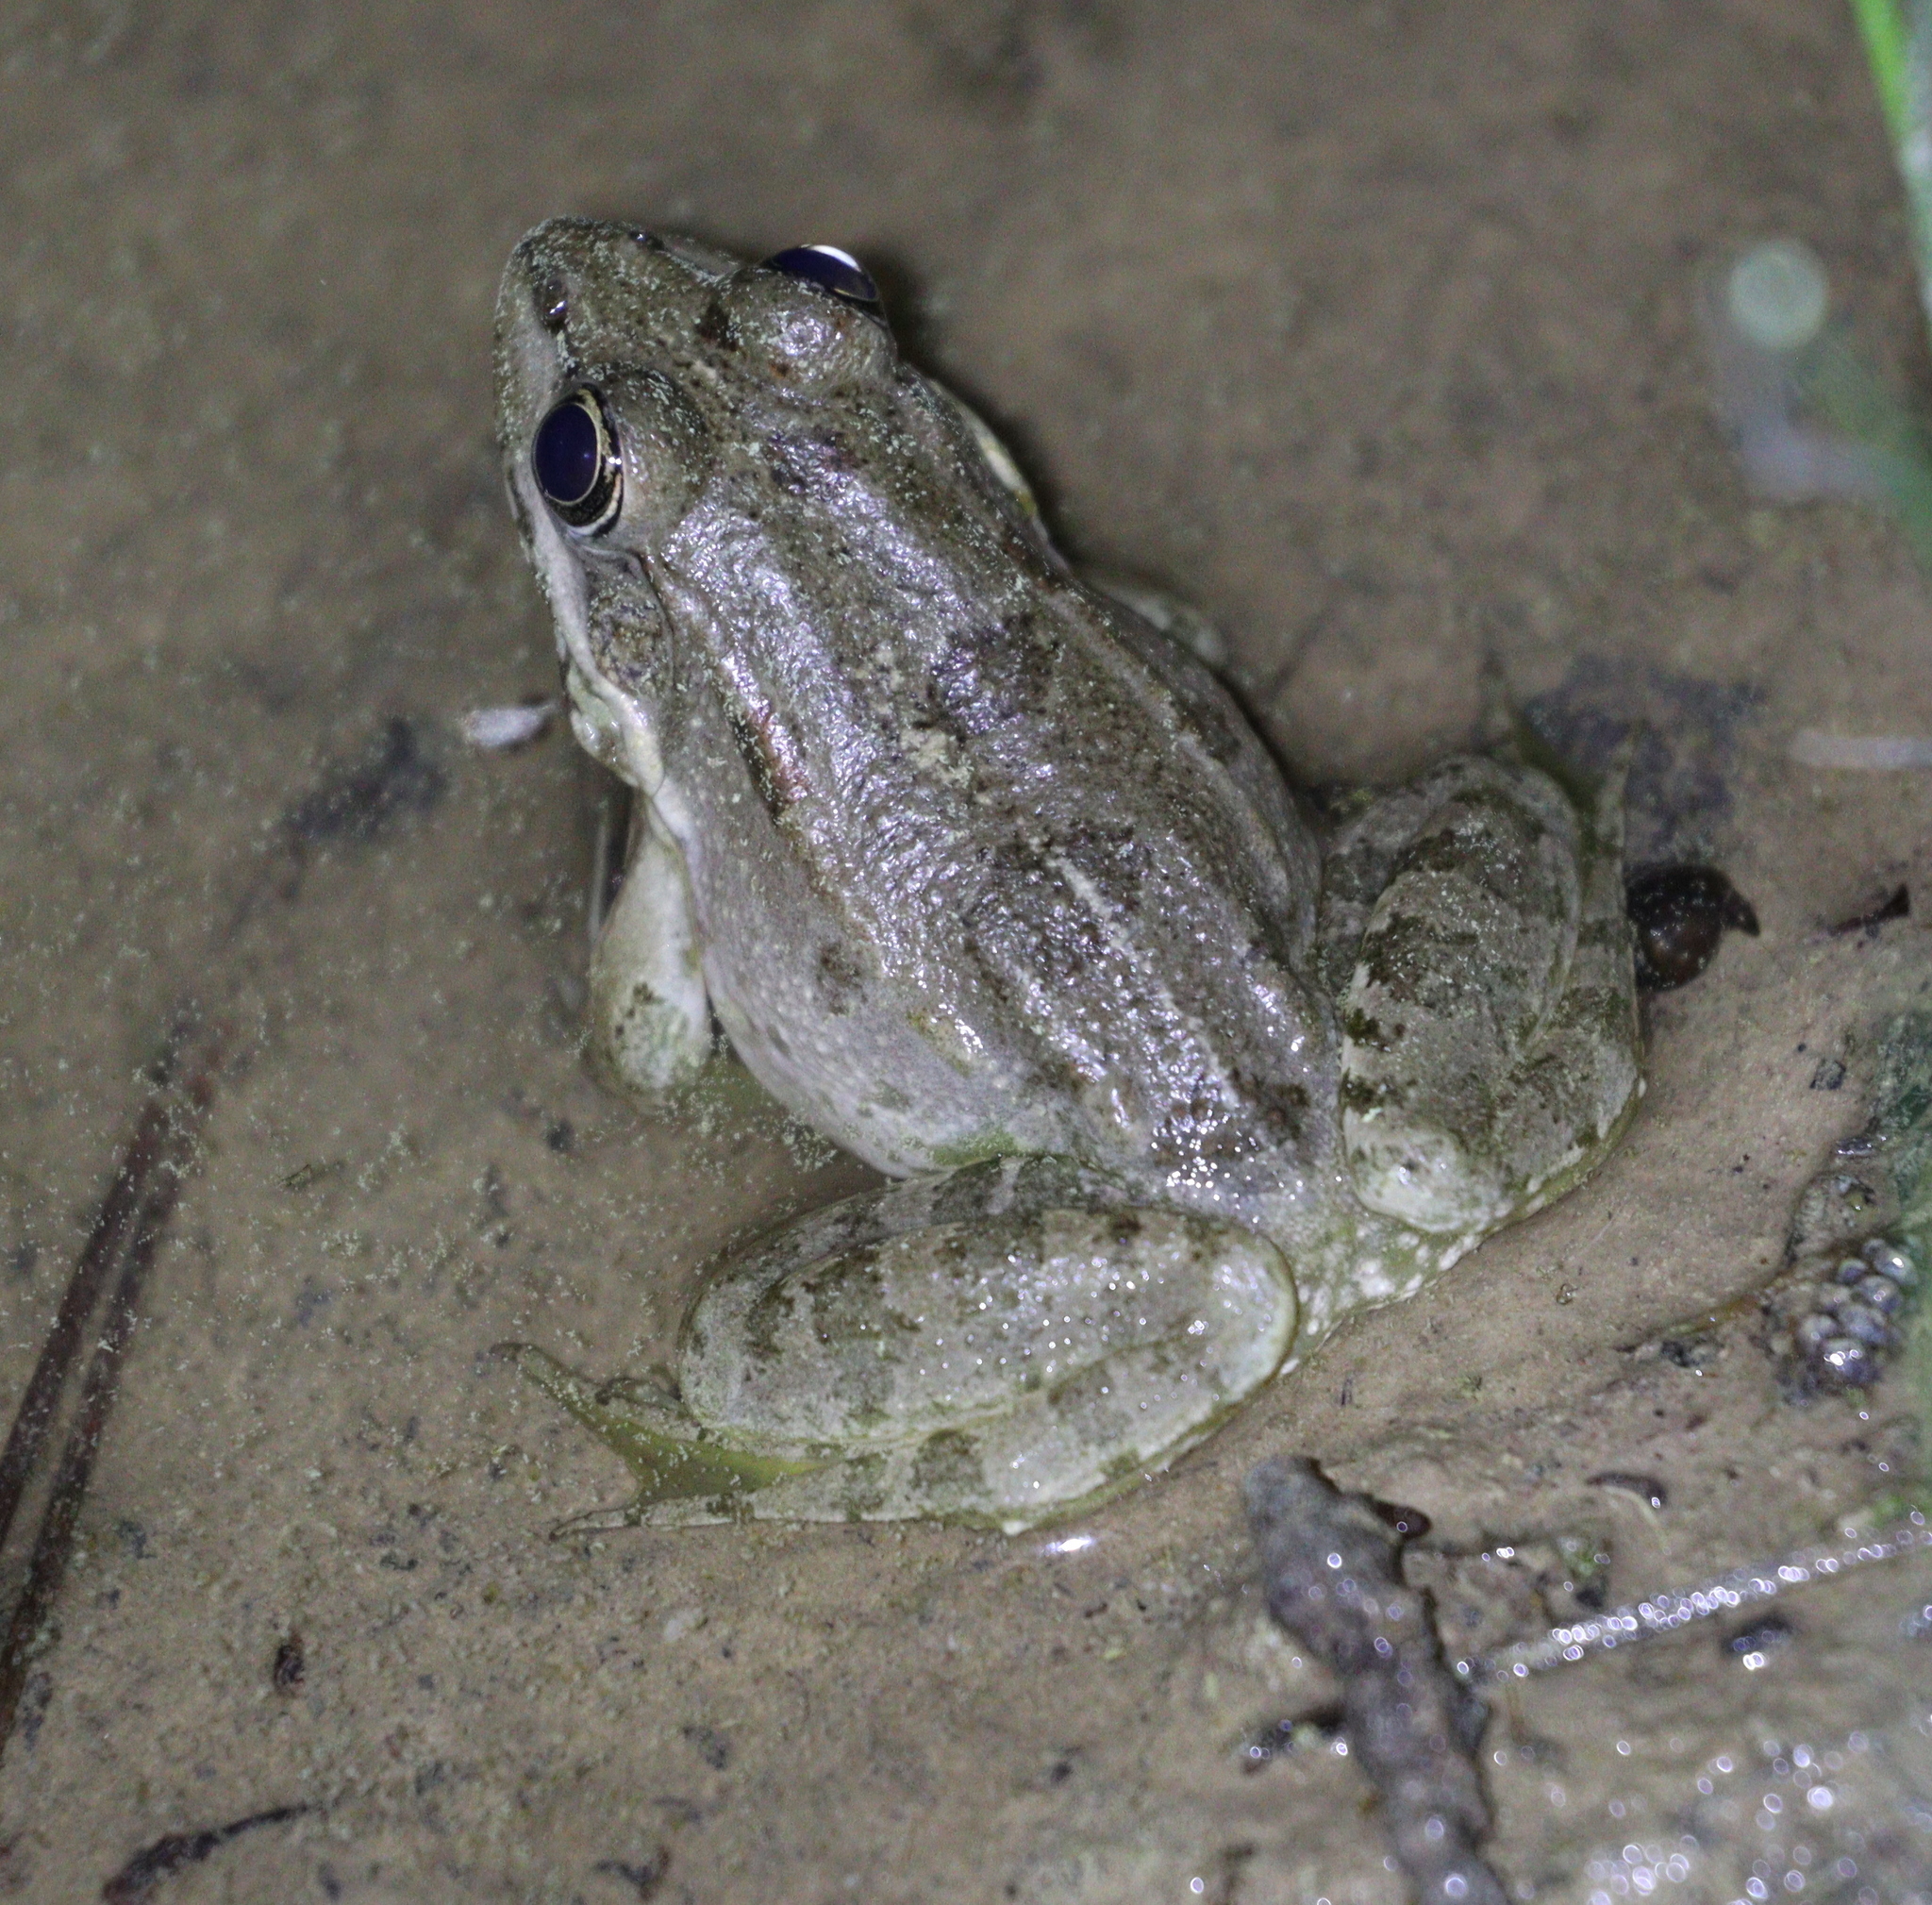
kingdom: Animalia
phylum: Chordata
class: Amphibia
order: Anura
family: Ranidae
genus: Pelophylax
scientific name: Pelophylax ridibundus
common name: Marsh frog
